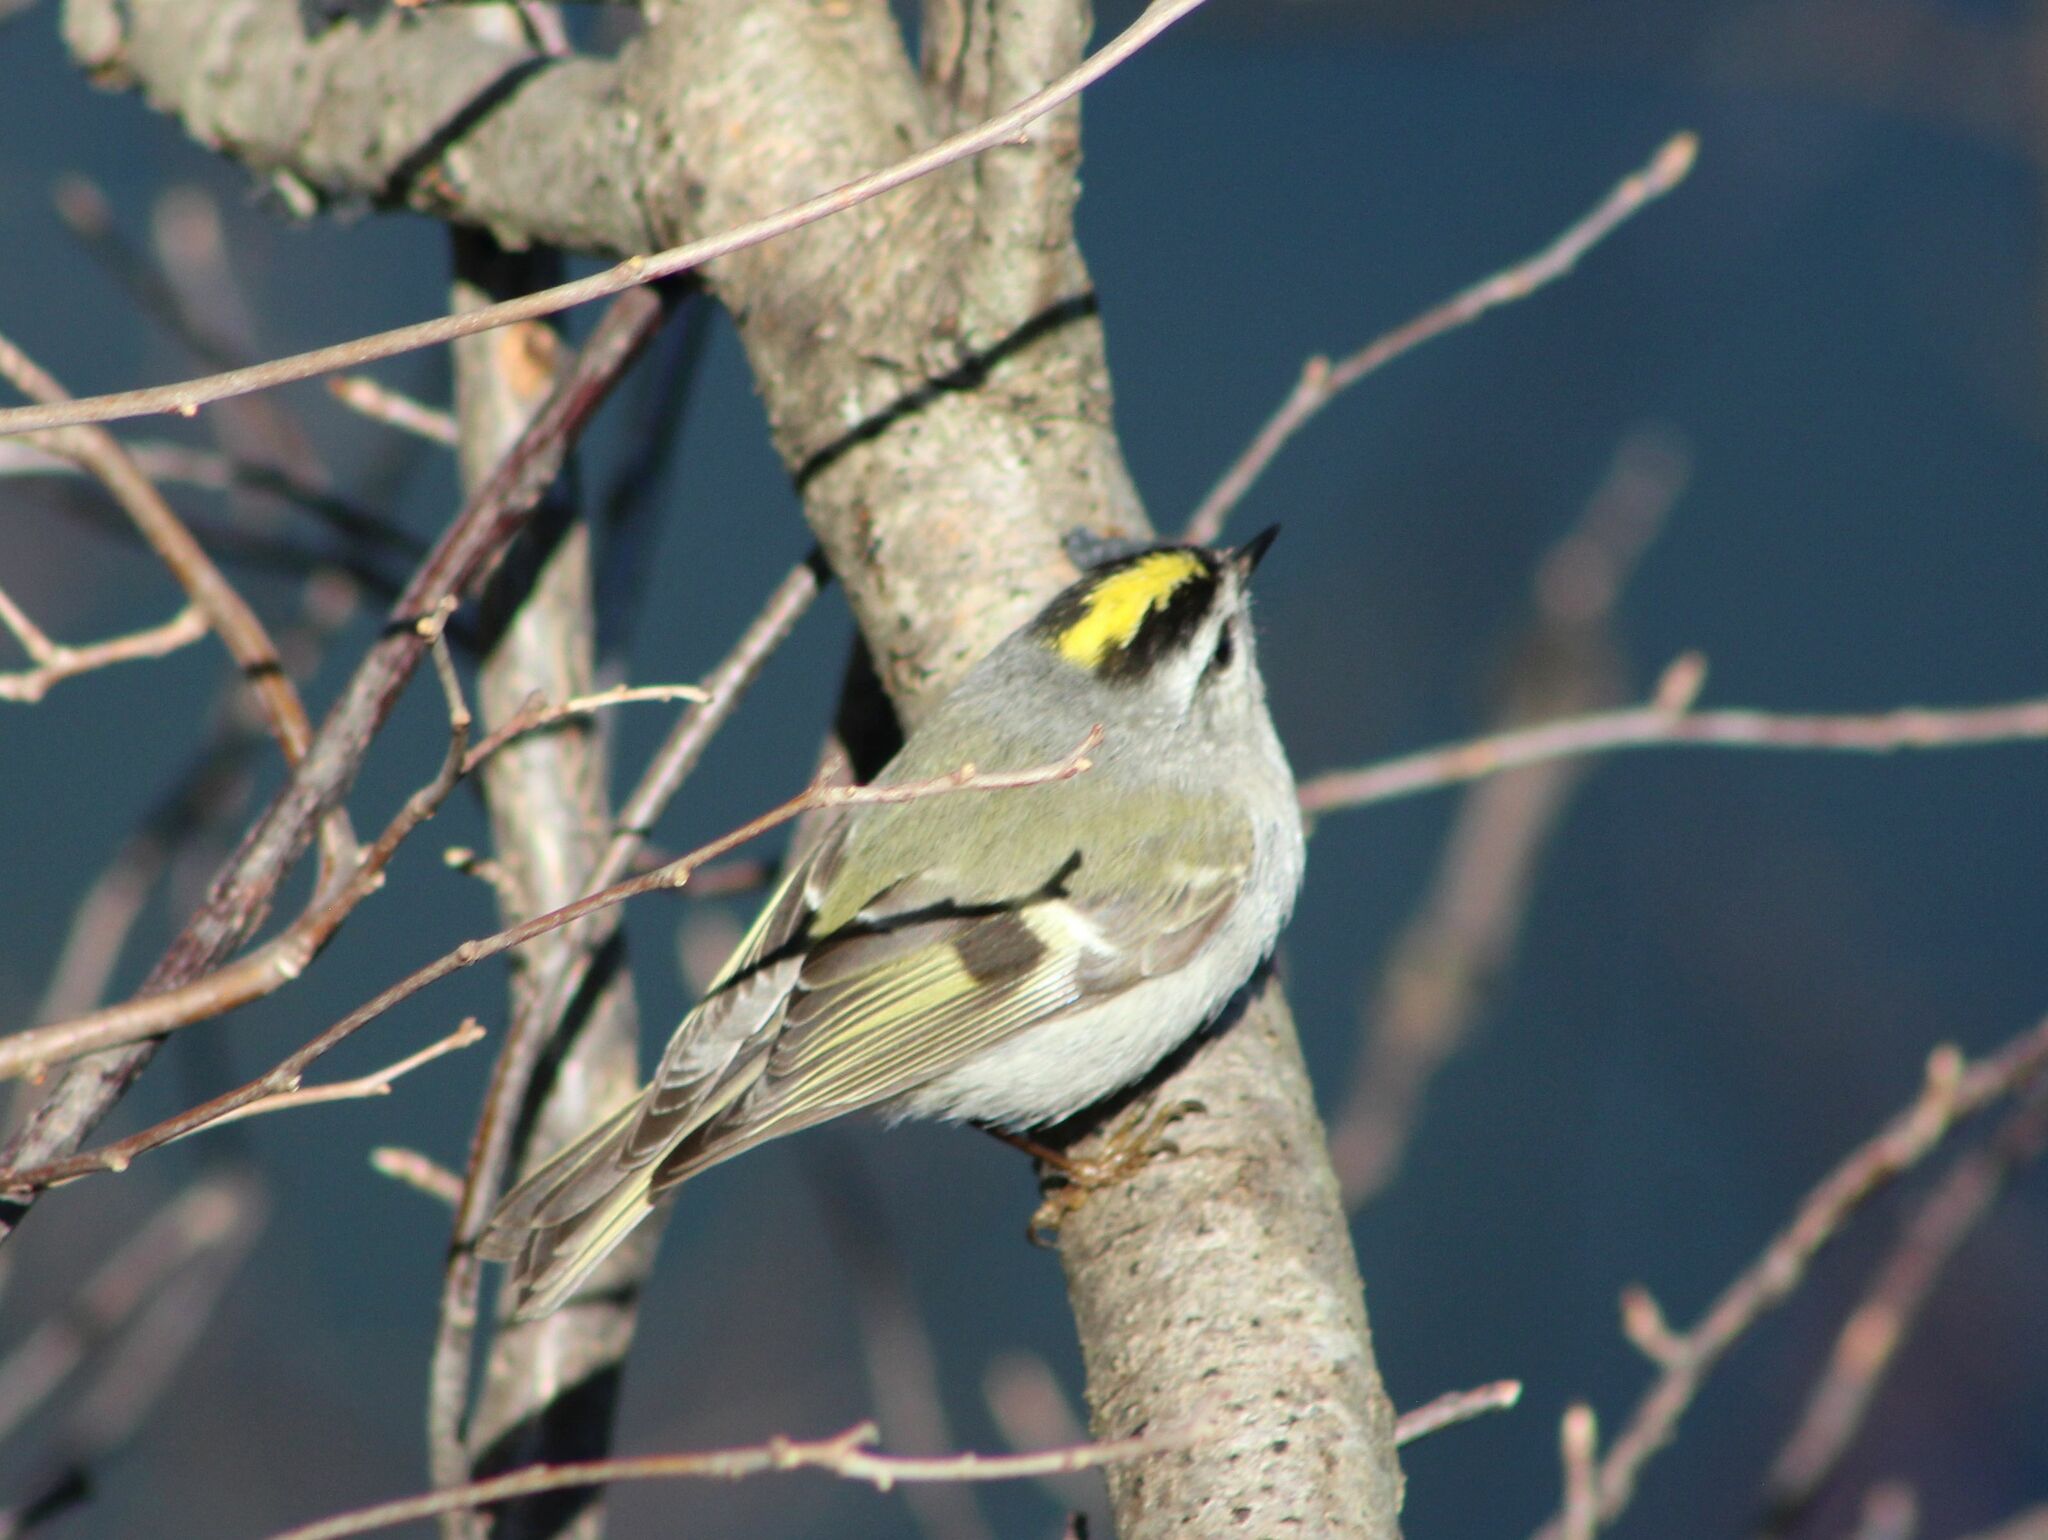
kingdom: Animalia
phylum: Chordata
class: Aves
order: Passeriformes
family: Regulidae
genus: Regulus
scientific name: Regulus satrapa
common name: Golden-crowned kinglet
